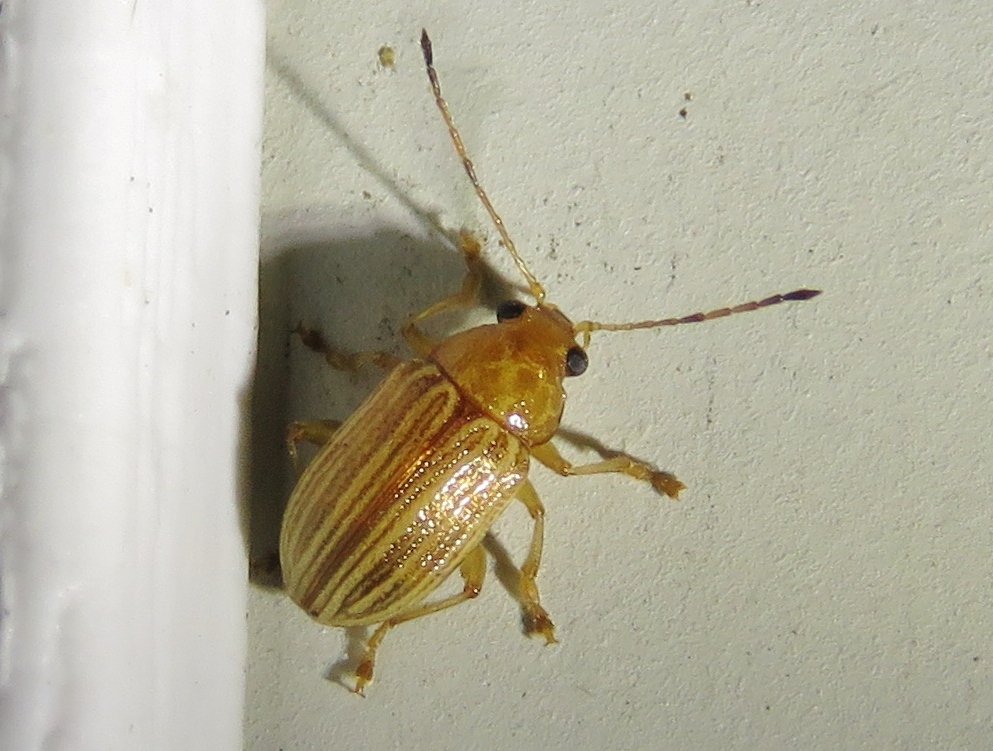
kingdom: Animalia
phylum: Arthropoda
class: Insecta
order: Coleoptera
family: Chrysomelidae
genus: Colaspis
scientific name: Colaspis brunnea
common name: Grape colaspis
